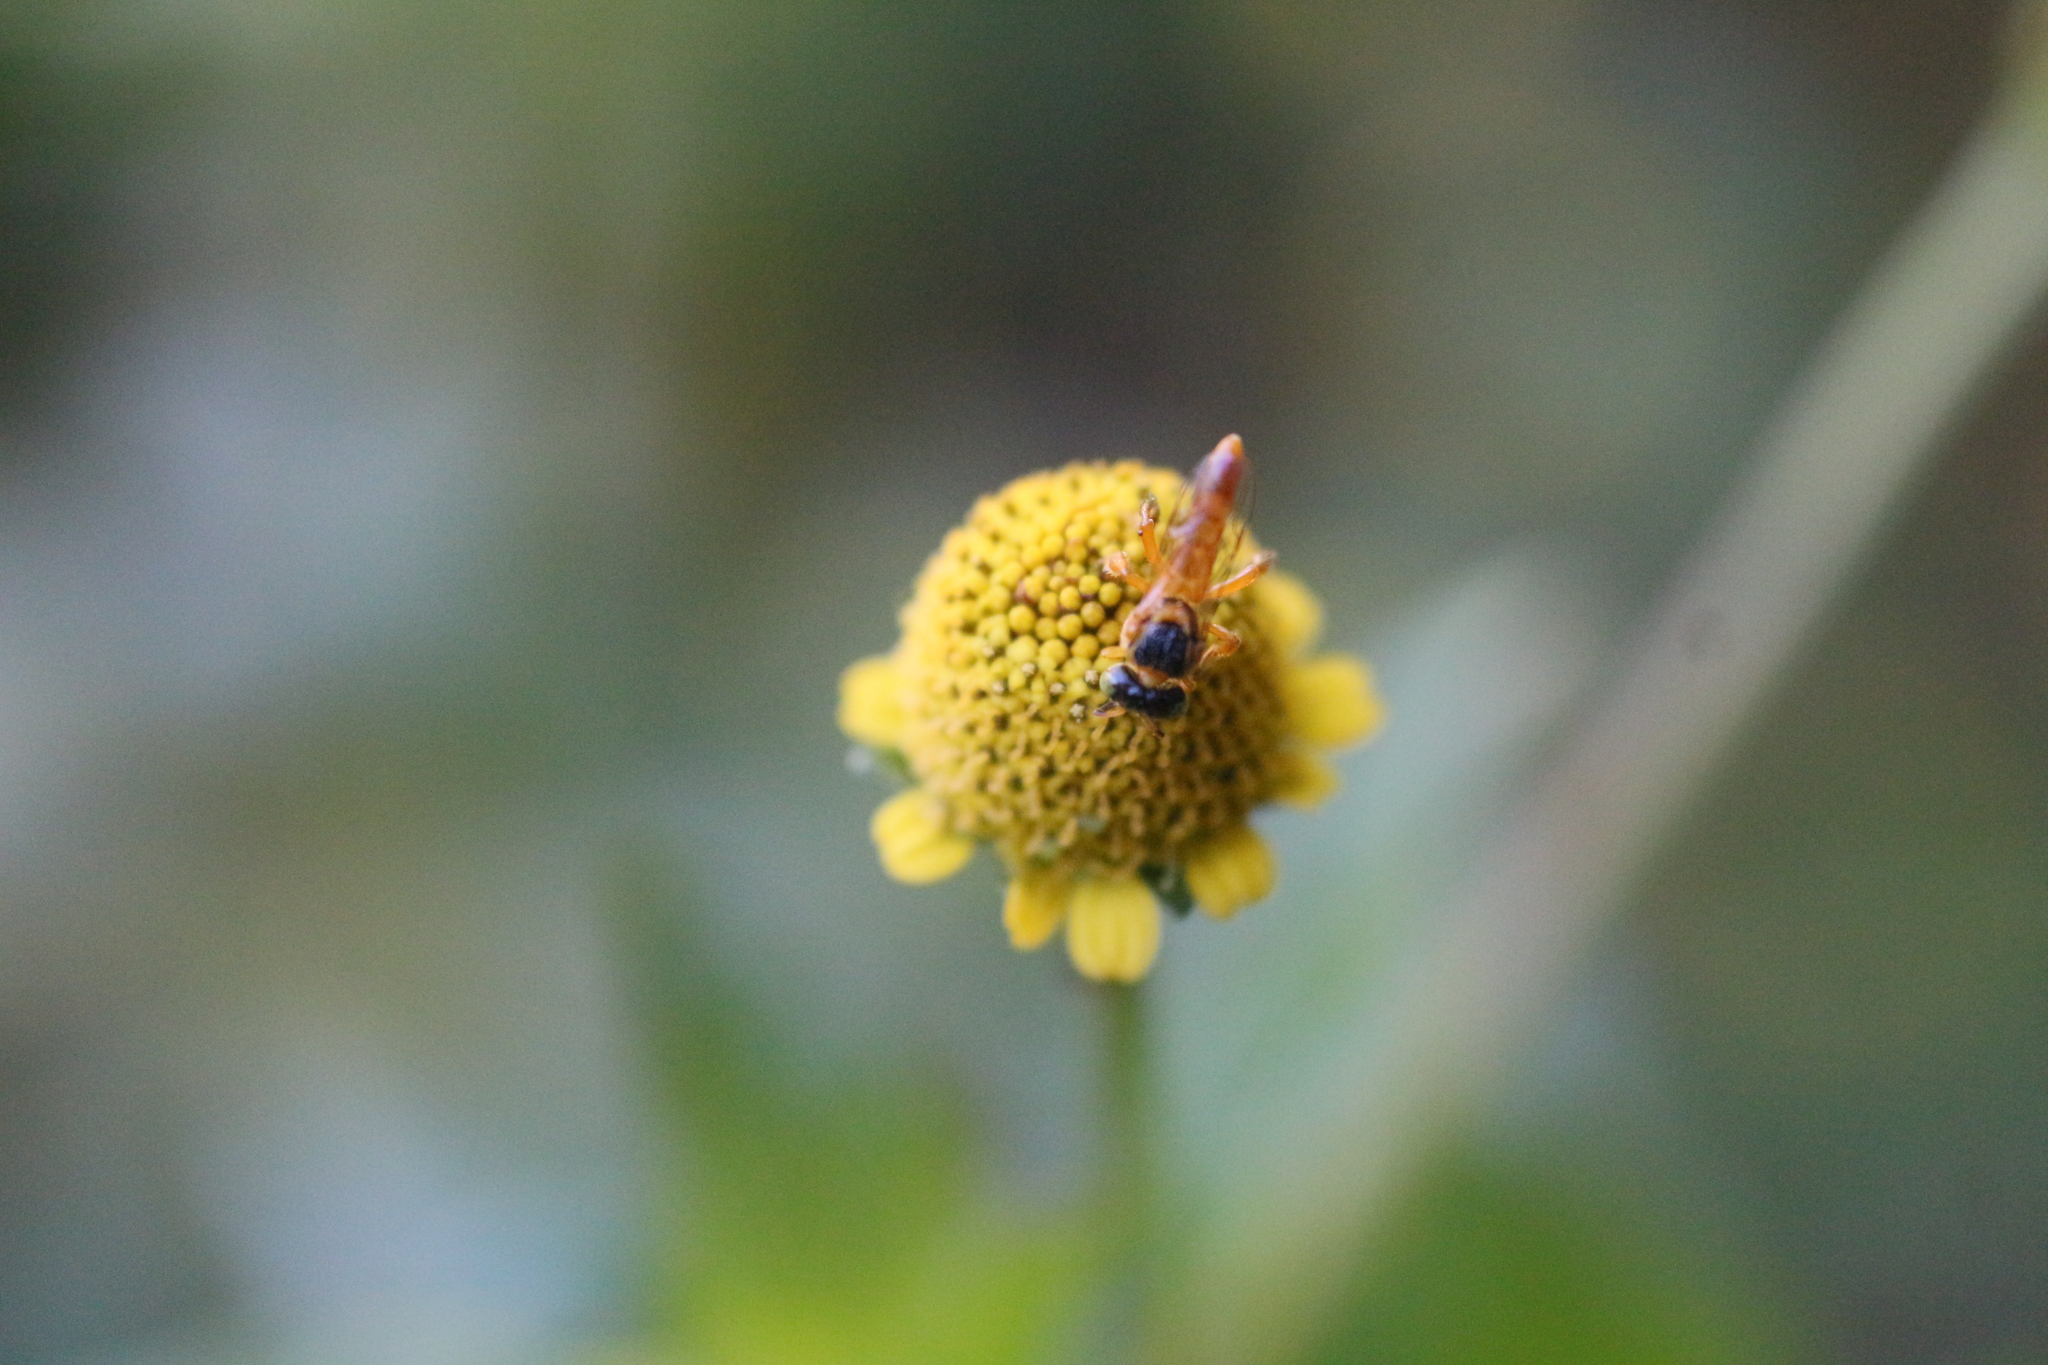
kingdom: Animalia
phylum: Arthropoda
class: Insecta
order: Hymenoptera
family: Apidae
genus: Tetragonisca
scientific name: Tetragonisca fiebrigi
